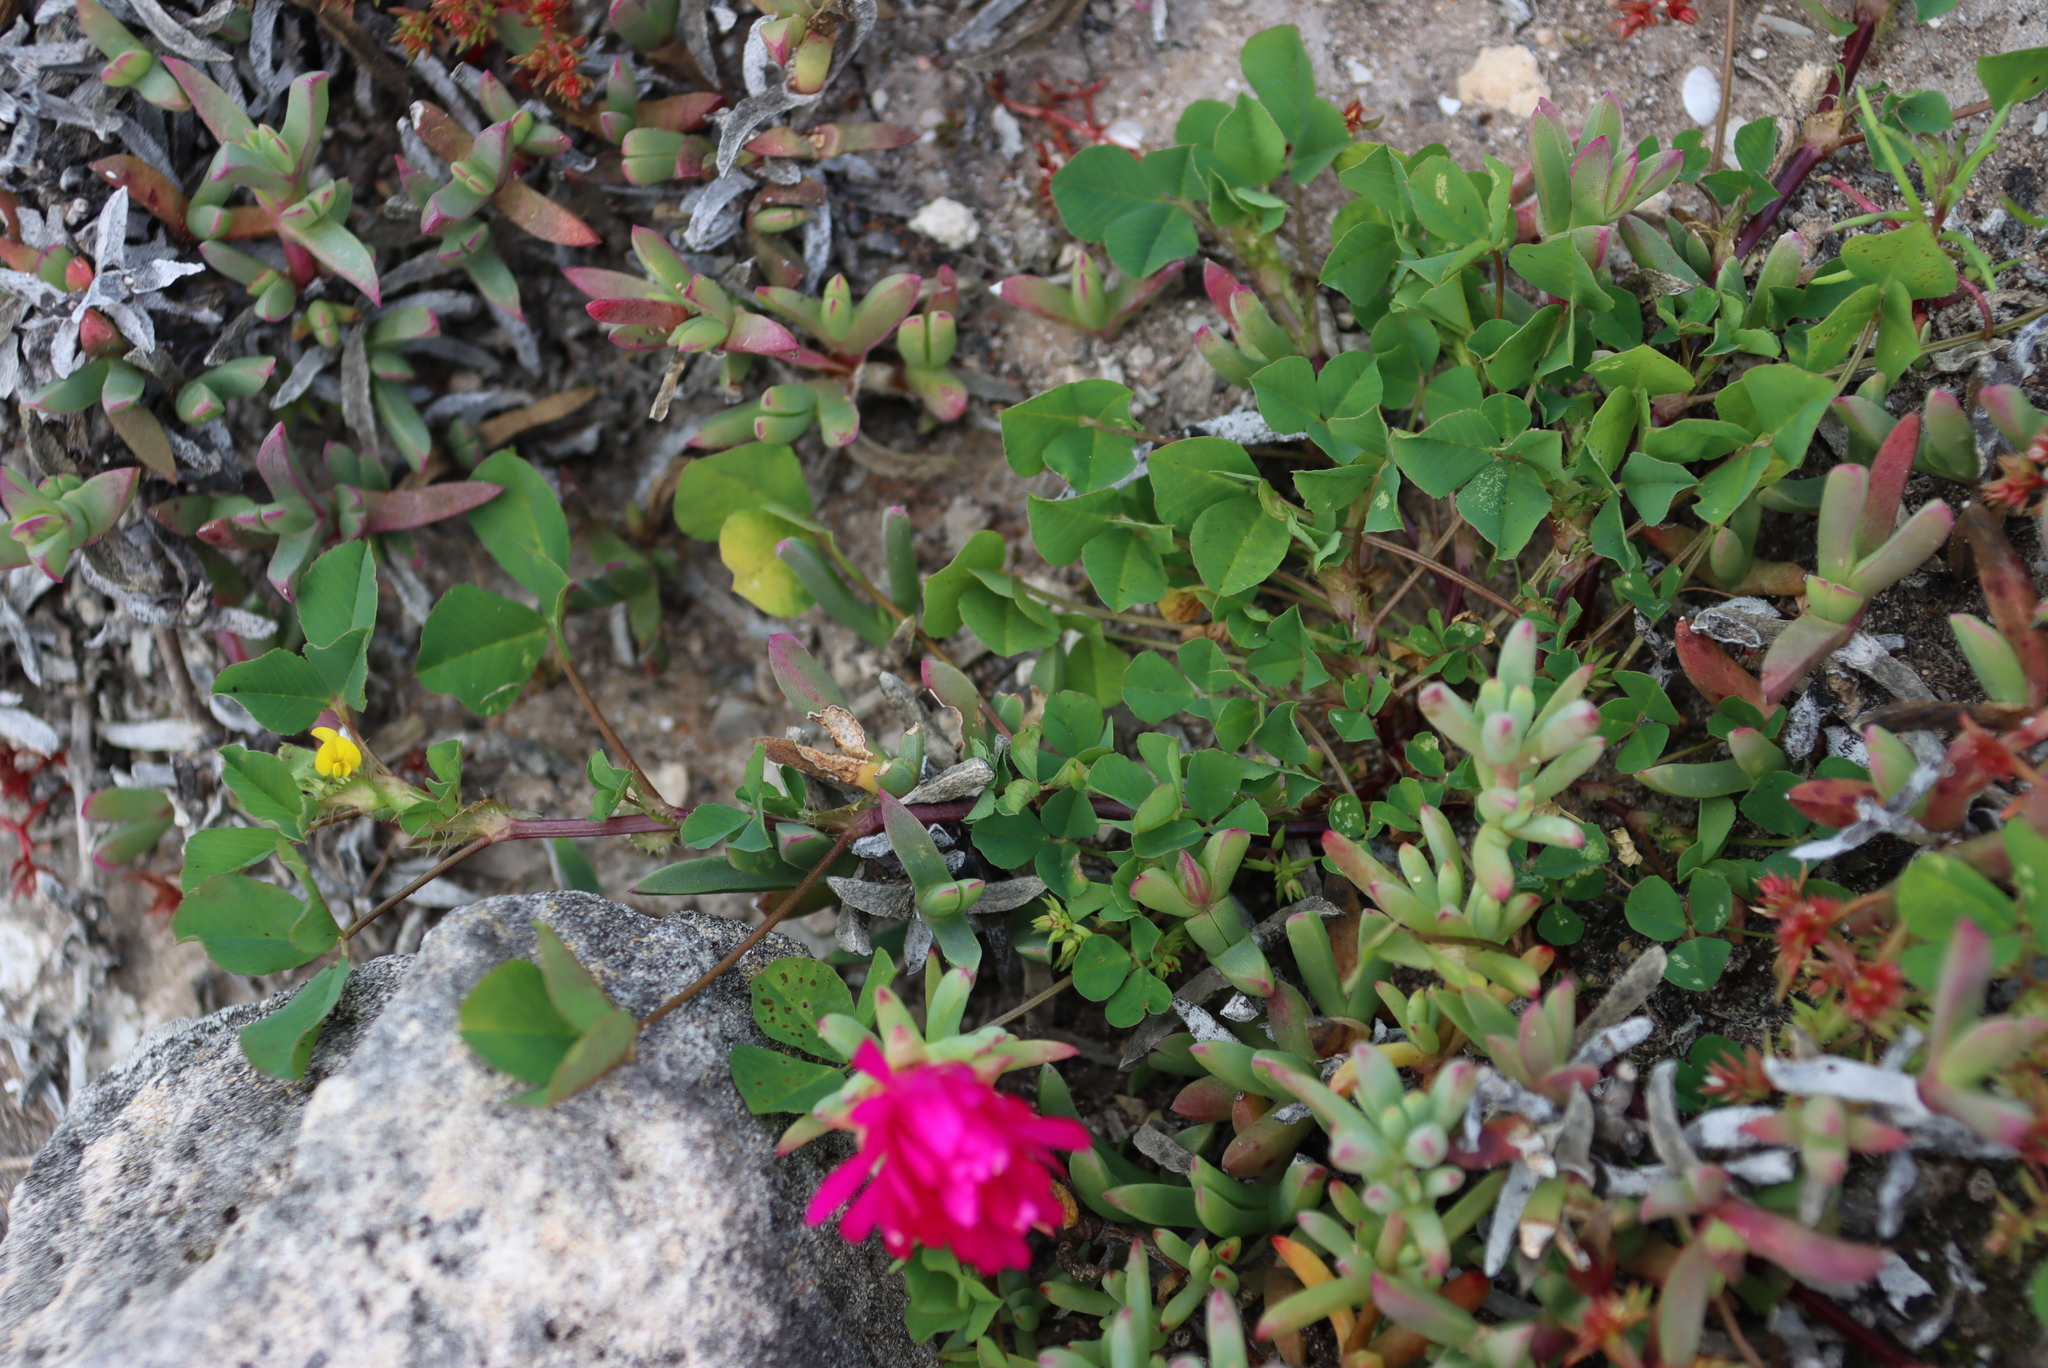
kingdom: Plantae
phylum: Tracheophyta
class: Magnoliopsida
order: Caryophyllales
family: Aizoaceae
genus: Lampranthus
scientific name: Lampranthus vernalis
